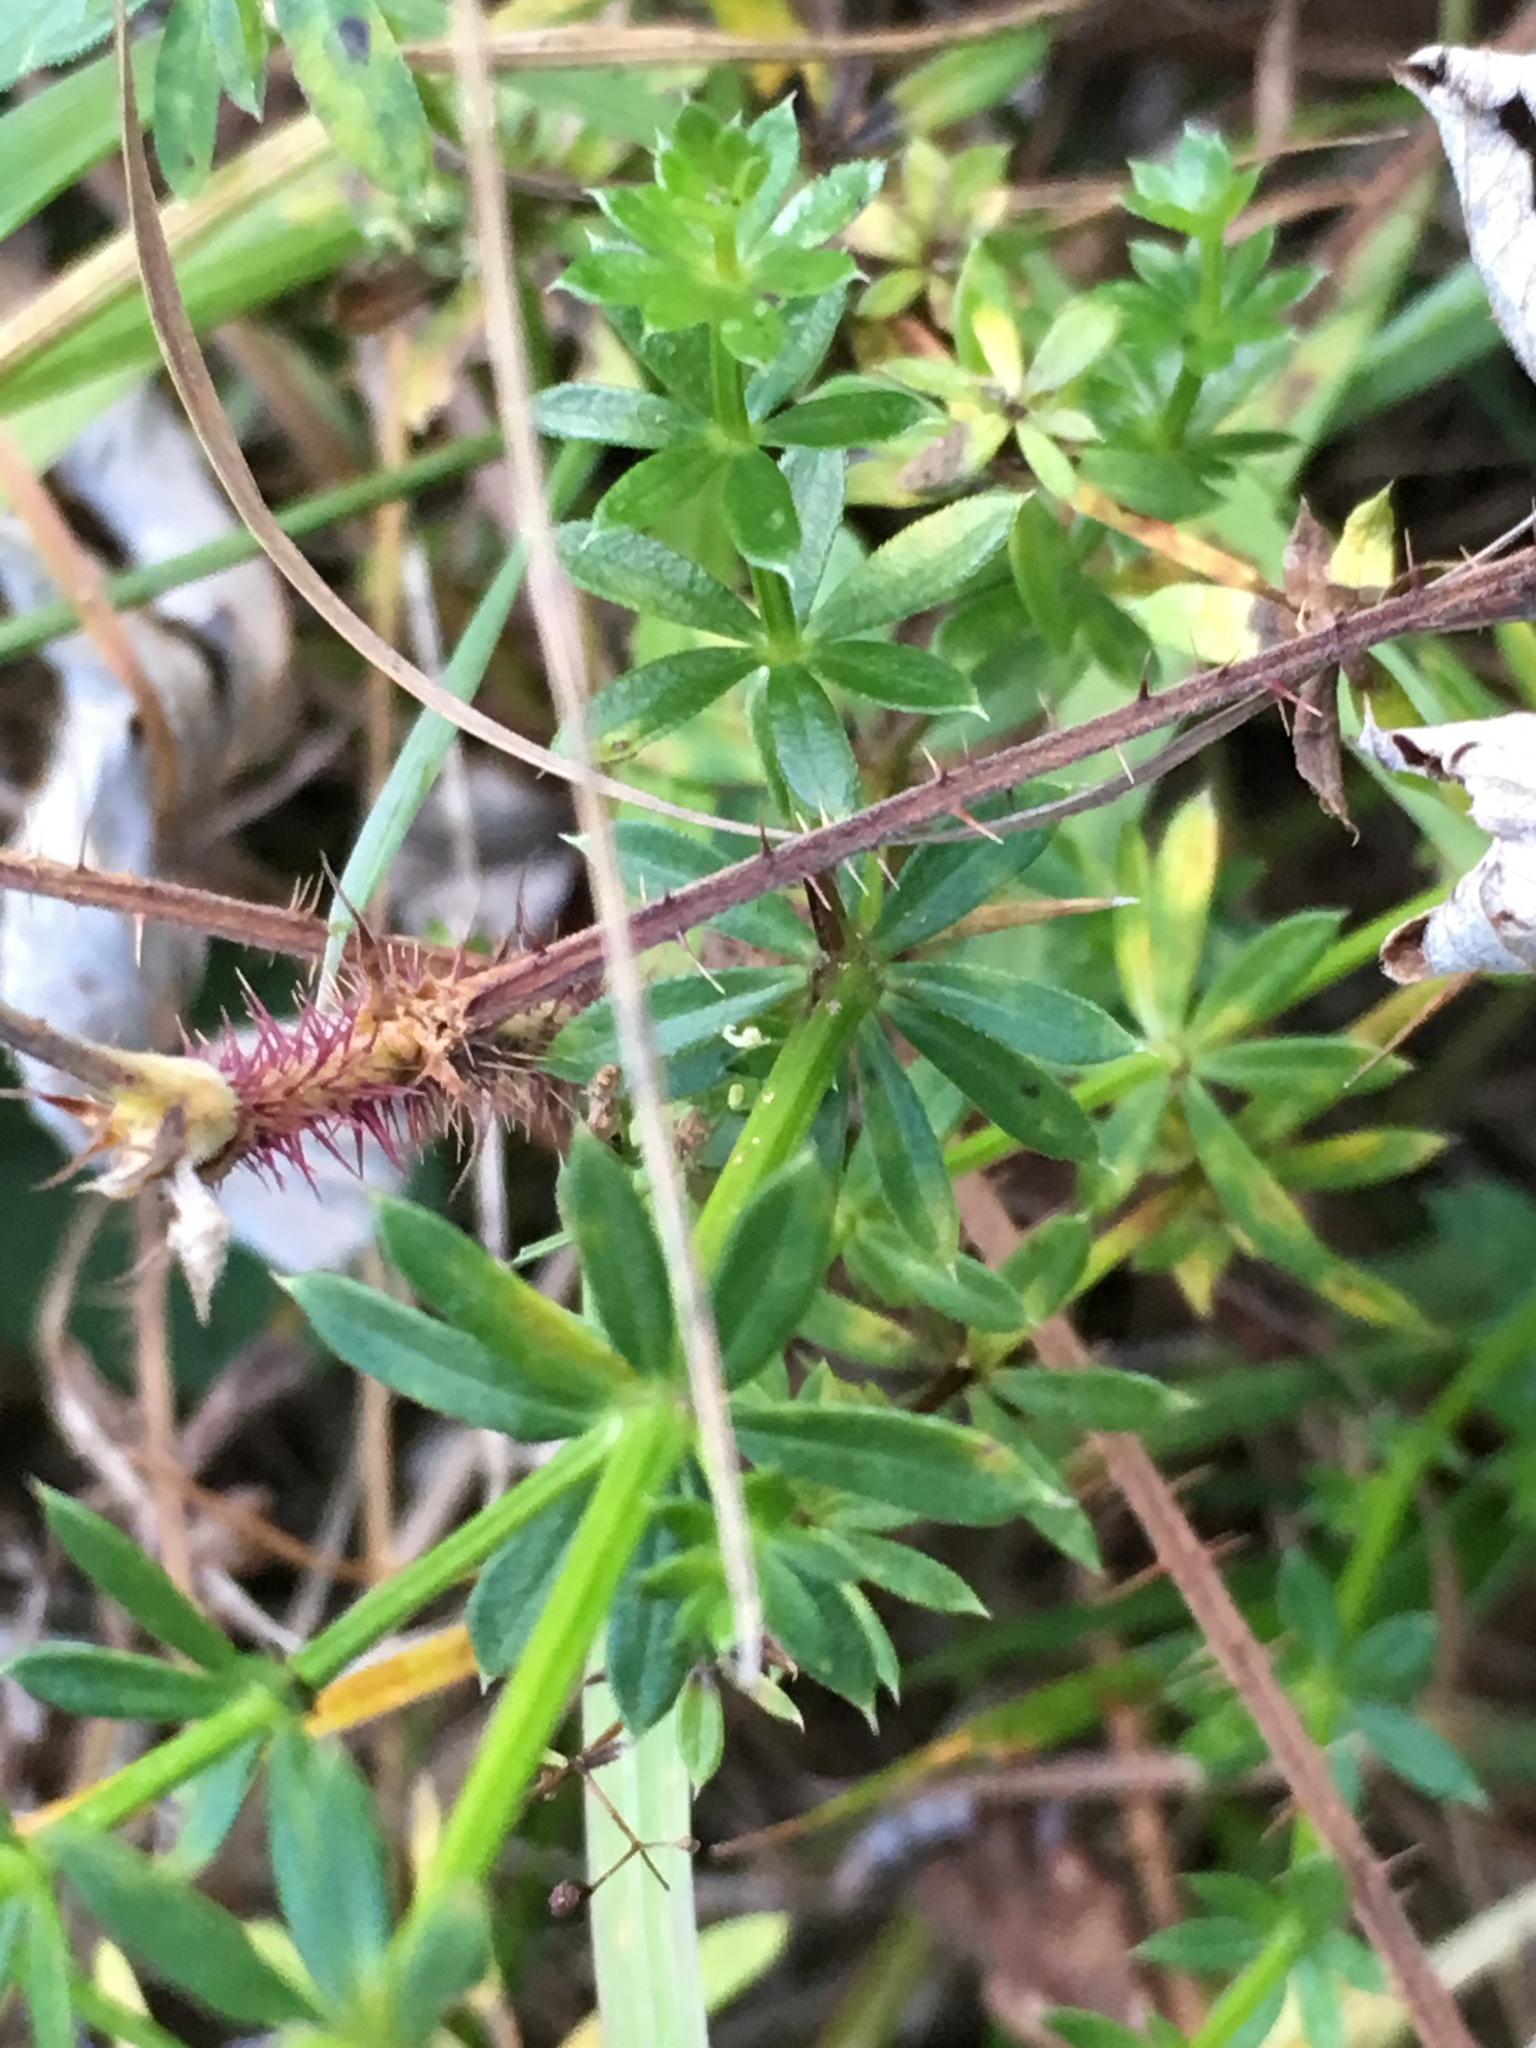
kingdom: Plantae
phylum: Tracheophyta
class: Magnoliopsida
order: Gentianales
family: Rubiaceae
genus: Galium
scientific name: Galium album
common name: White bedstraw
